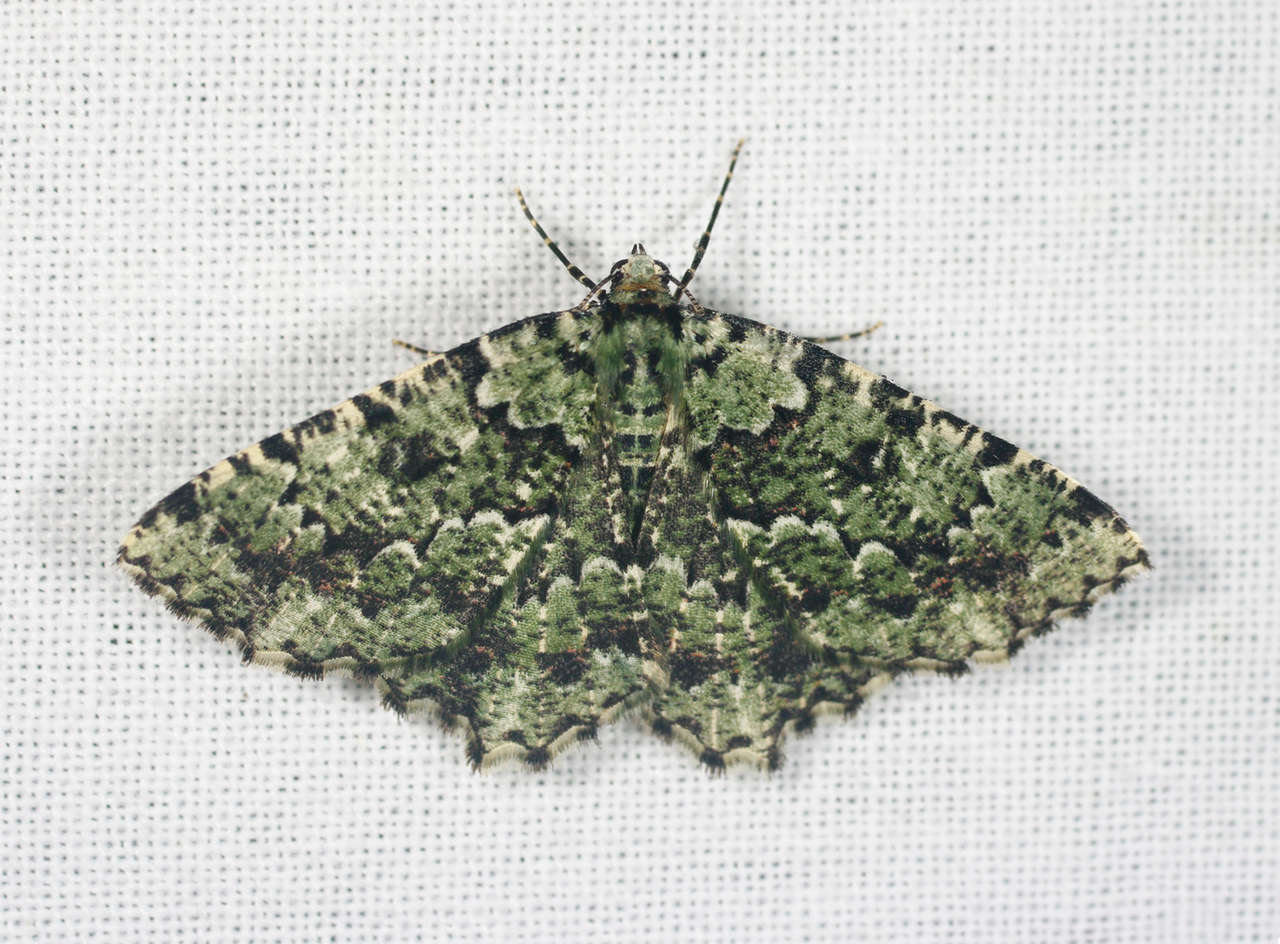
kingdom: Animalia
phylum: Arthropoda
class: Insecta
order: Lepidoptera
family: Geometridae
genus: Aeolochroma
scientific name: Aeolochroma mniaria
